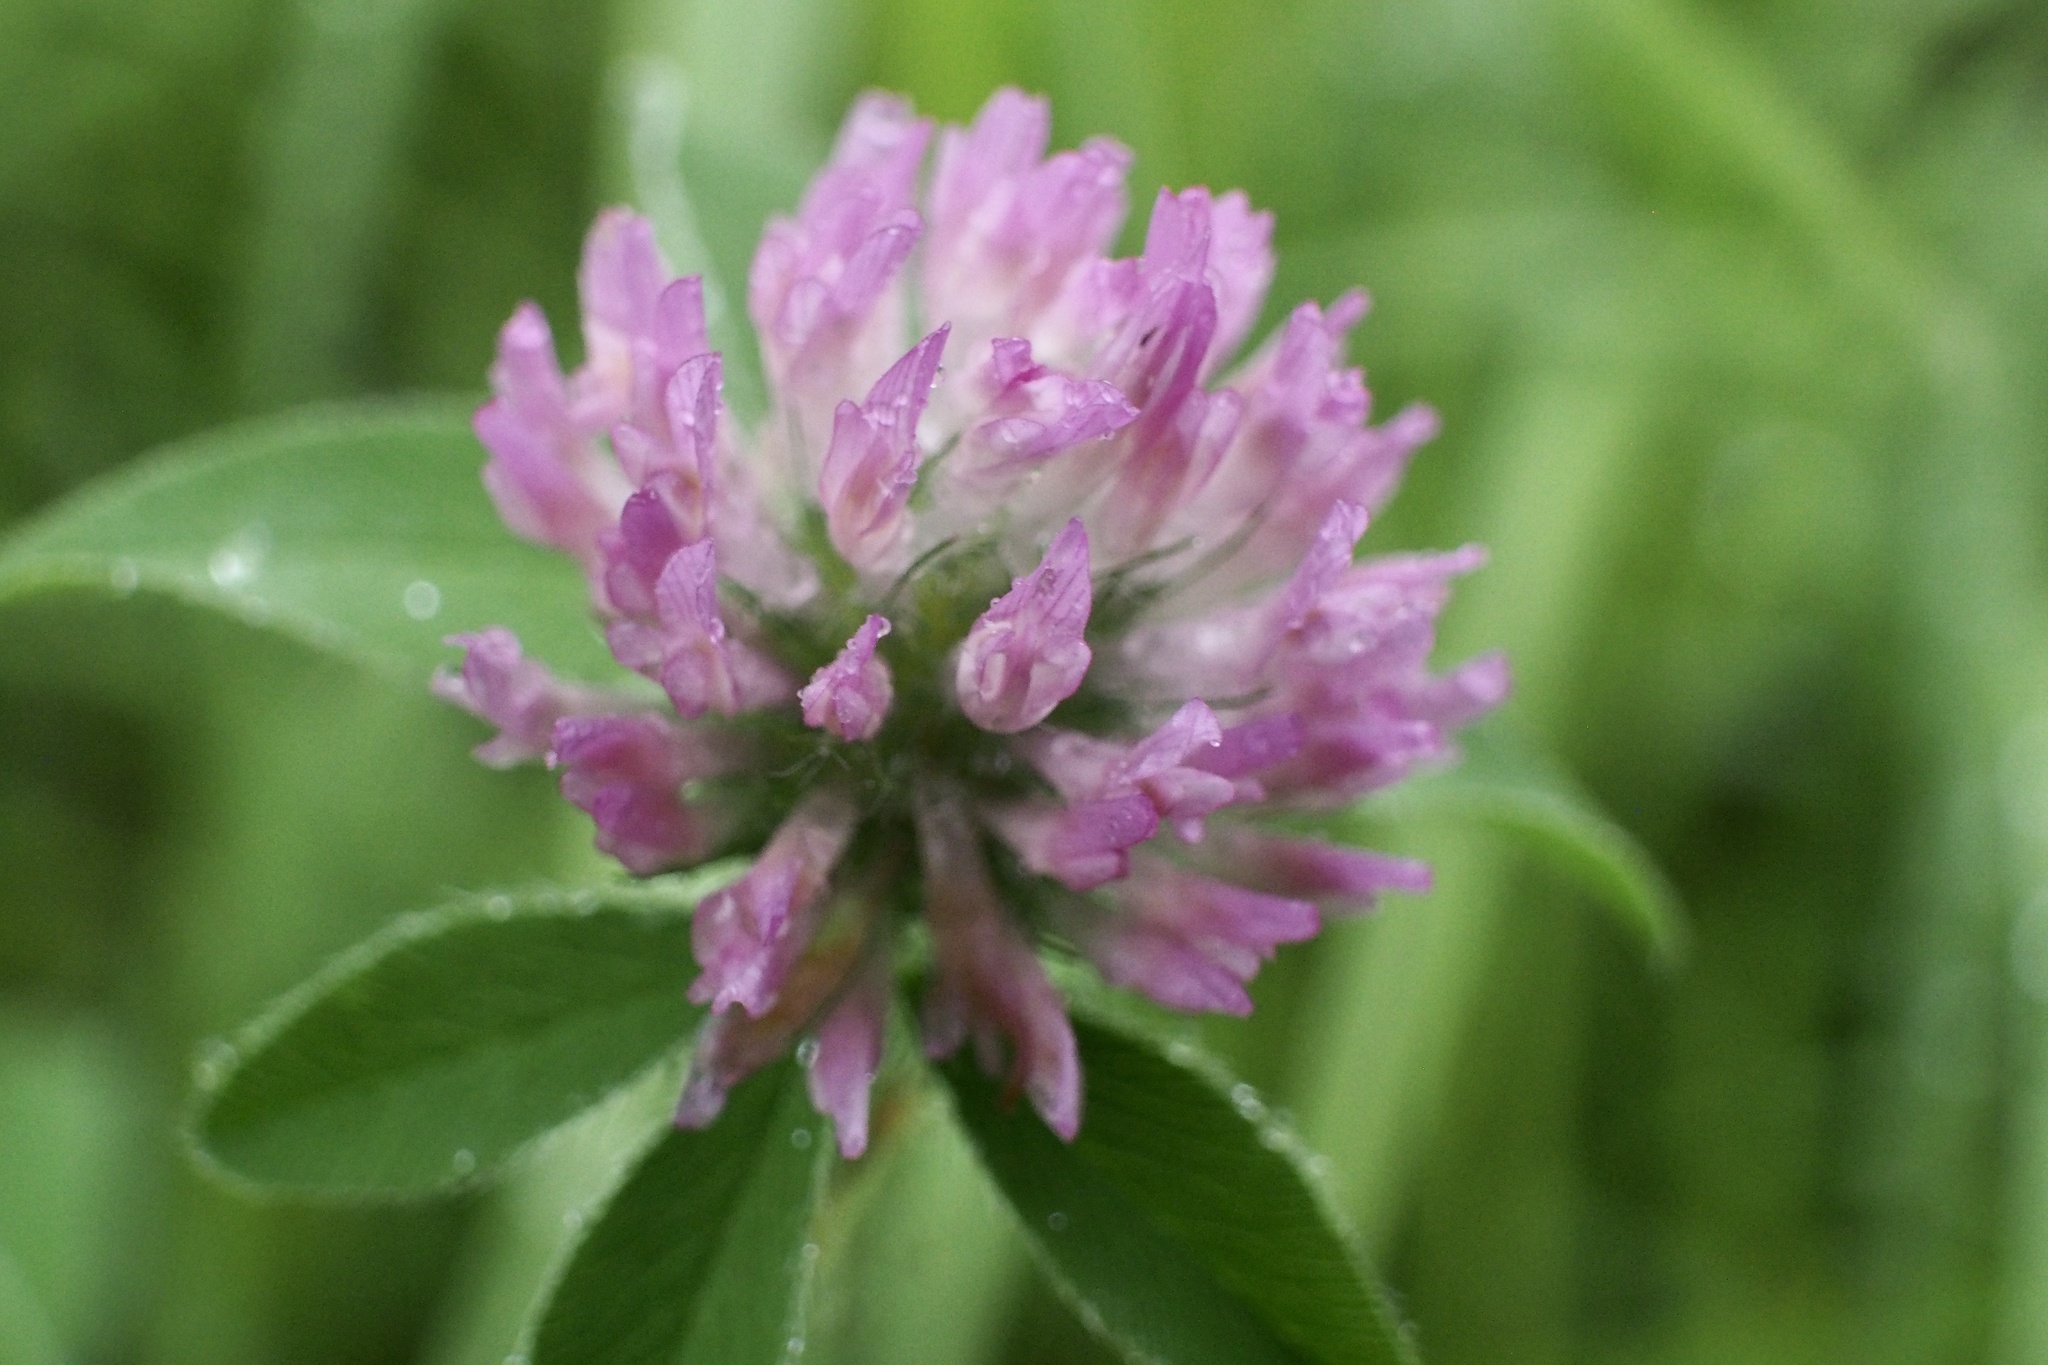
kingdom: Plantae
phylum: Tracheophyta
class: Magnoliopsida
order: Fabales
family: Fabaceae
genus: Trifolium
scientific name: Trifolium pratense
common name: Red clover
